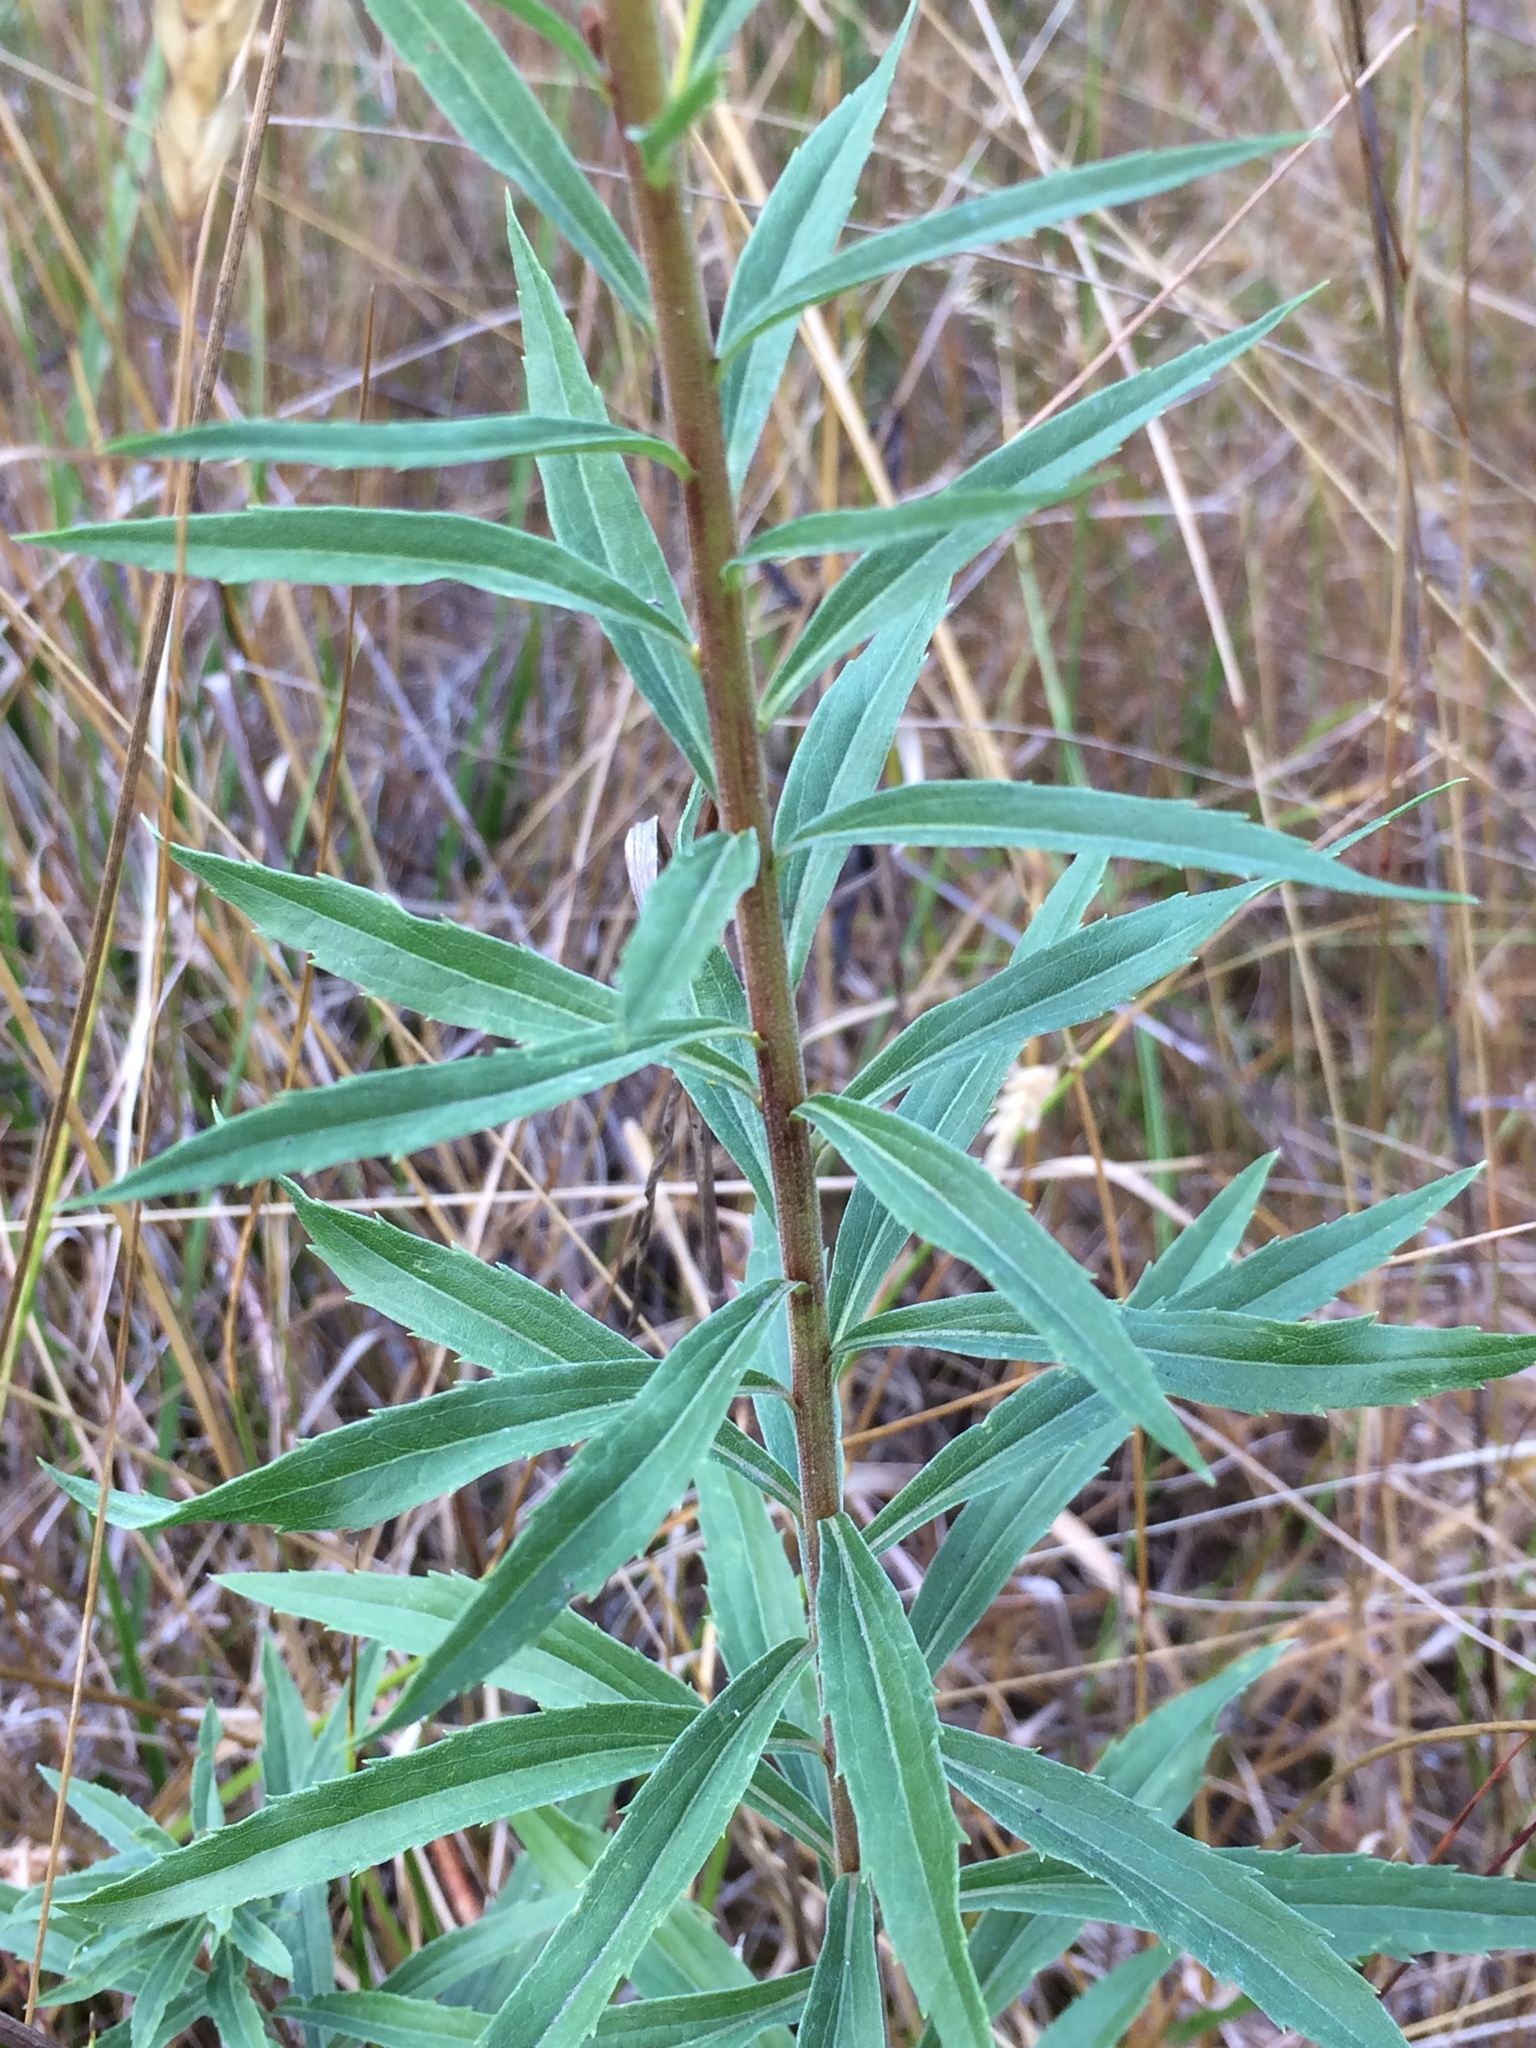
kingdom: Plantae
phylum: Tracheophyta
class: Magnoliopsida
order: Asterales
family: Asteraceae
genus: Solidago
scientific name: Solidago canadensis
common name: Canada goldenrod
